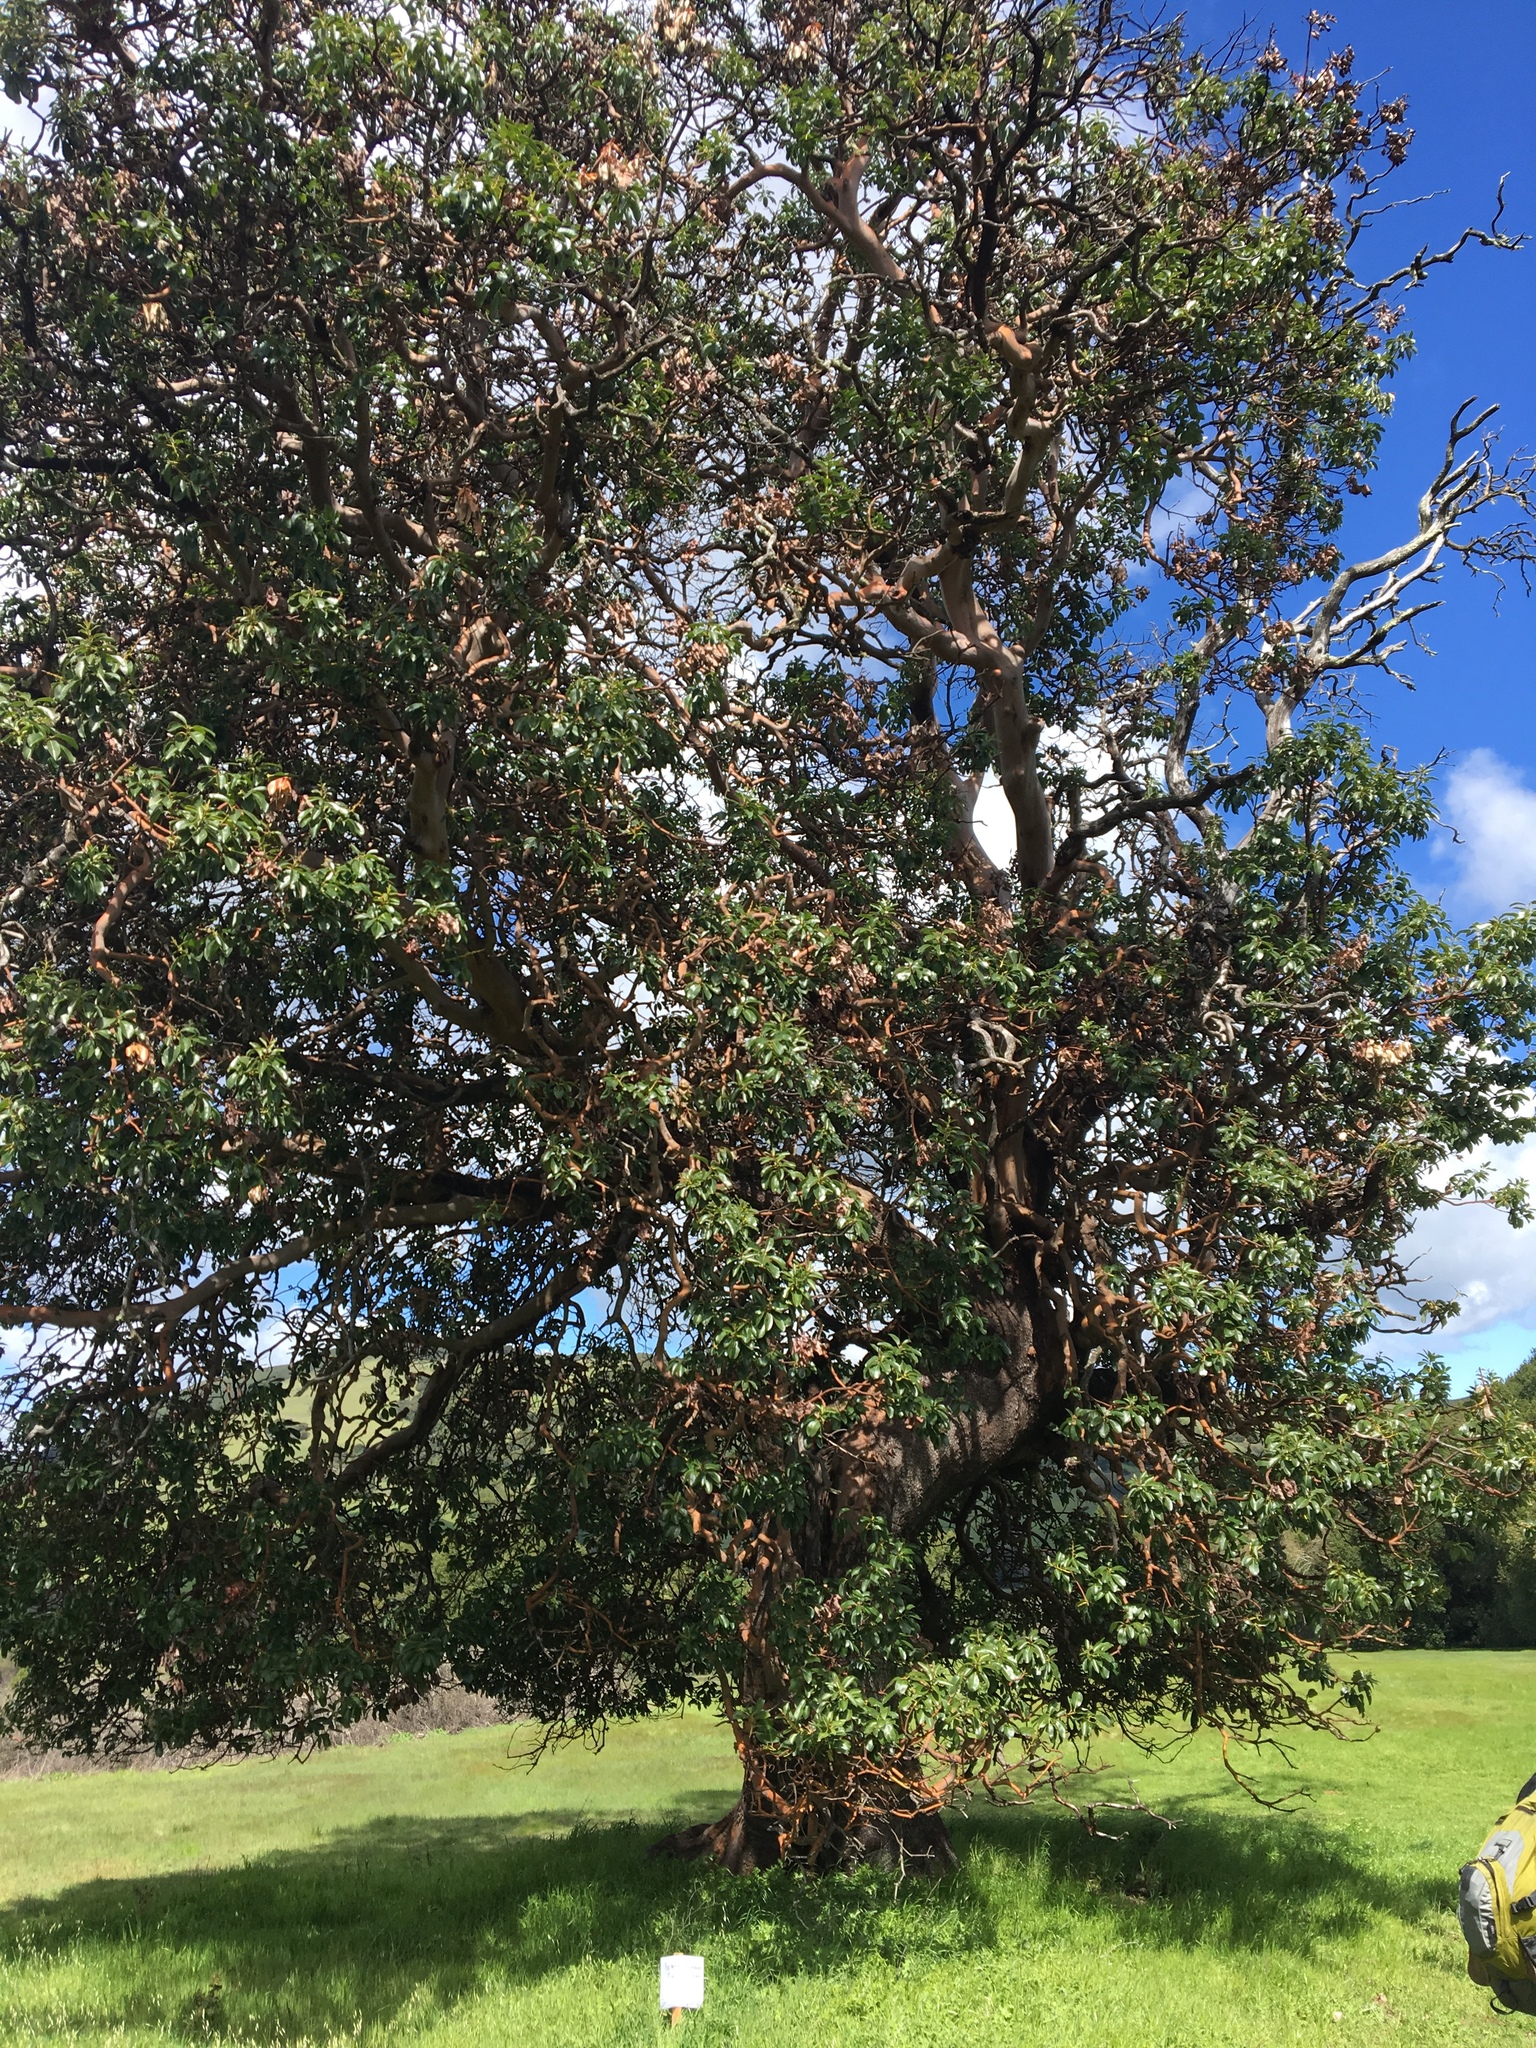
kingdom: Plantae
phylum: Tracheophyta
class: Magnoliopsida
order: Ericales
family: Ericaceae
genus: Arbutus
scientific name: Arbutus menziesii
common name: Pacific madrone
